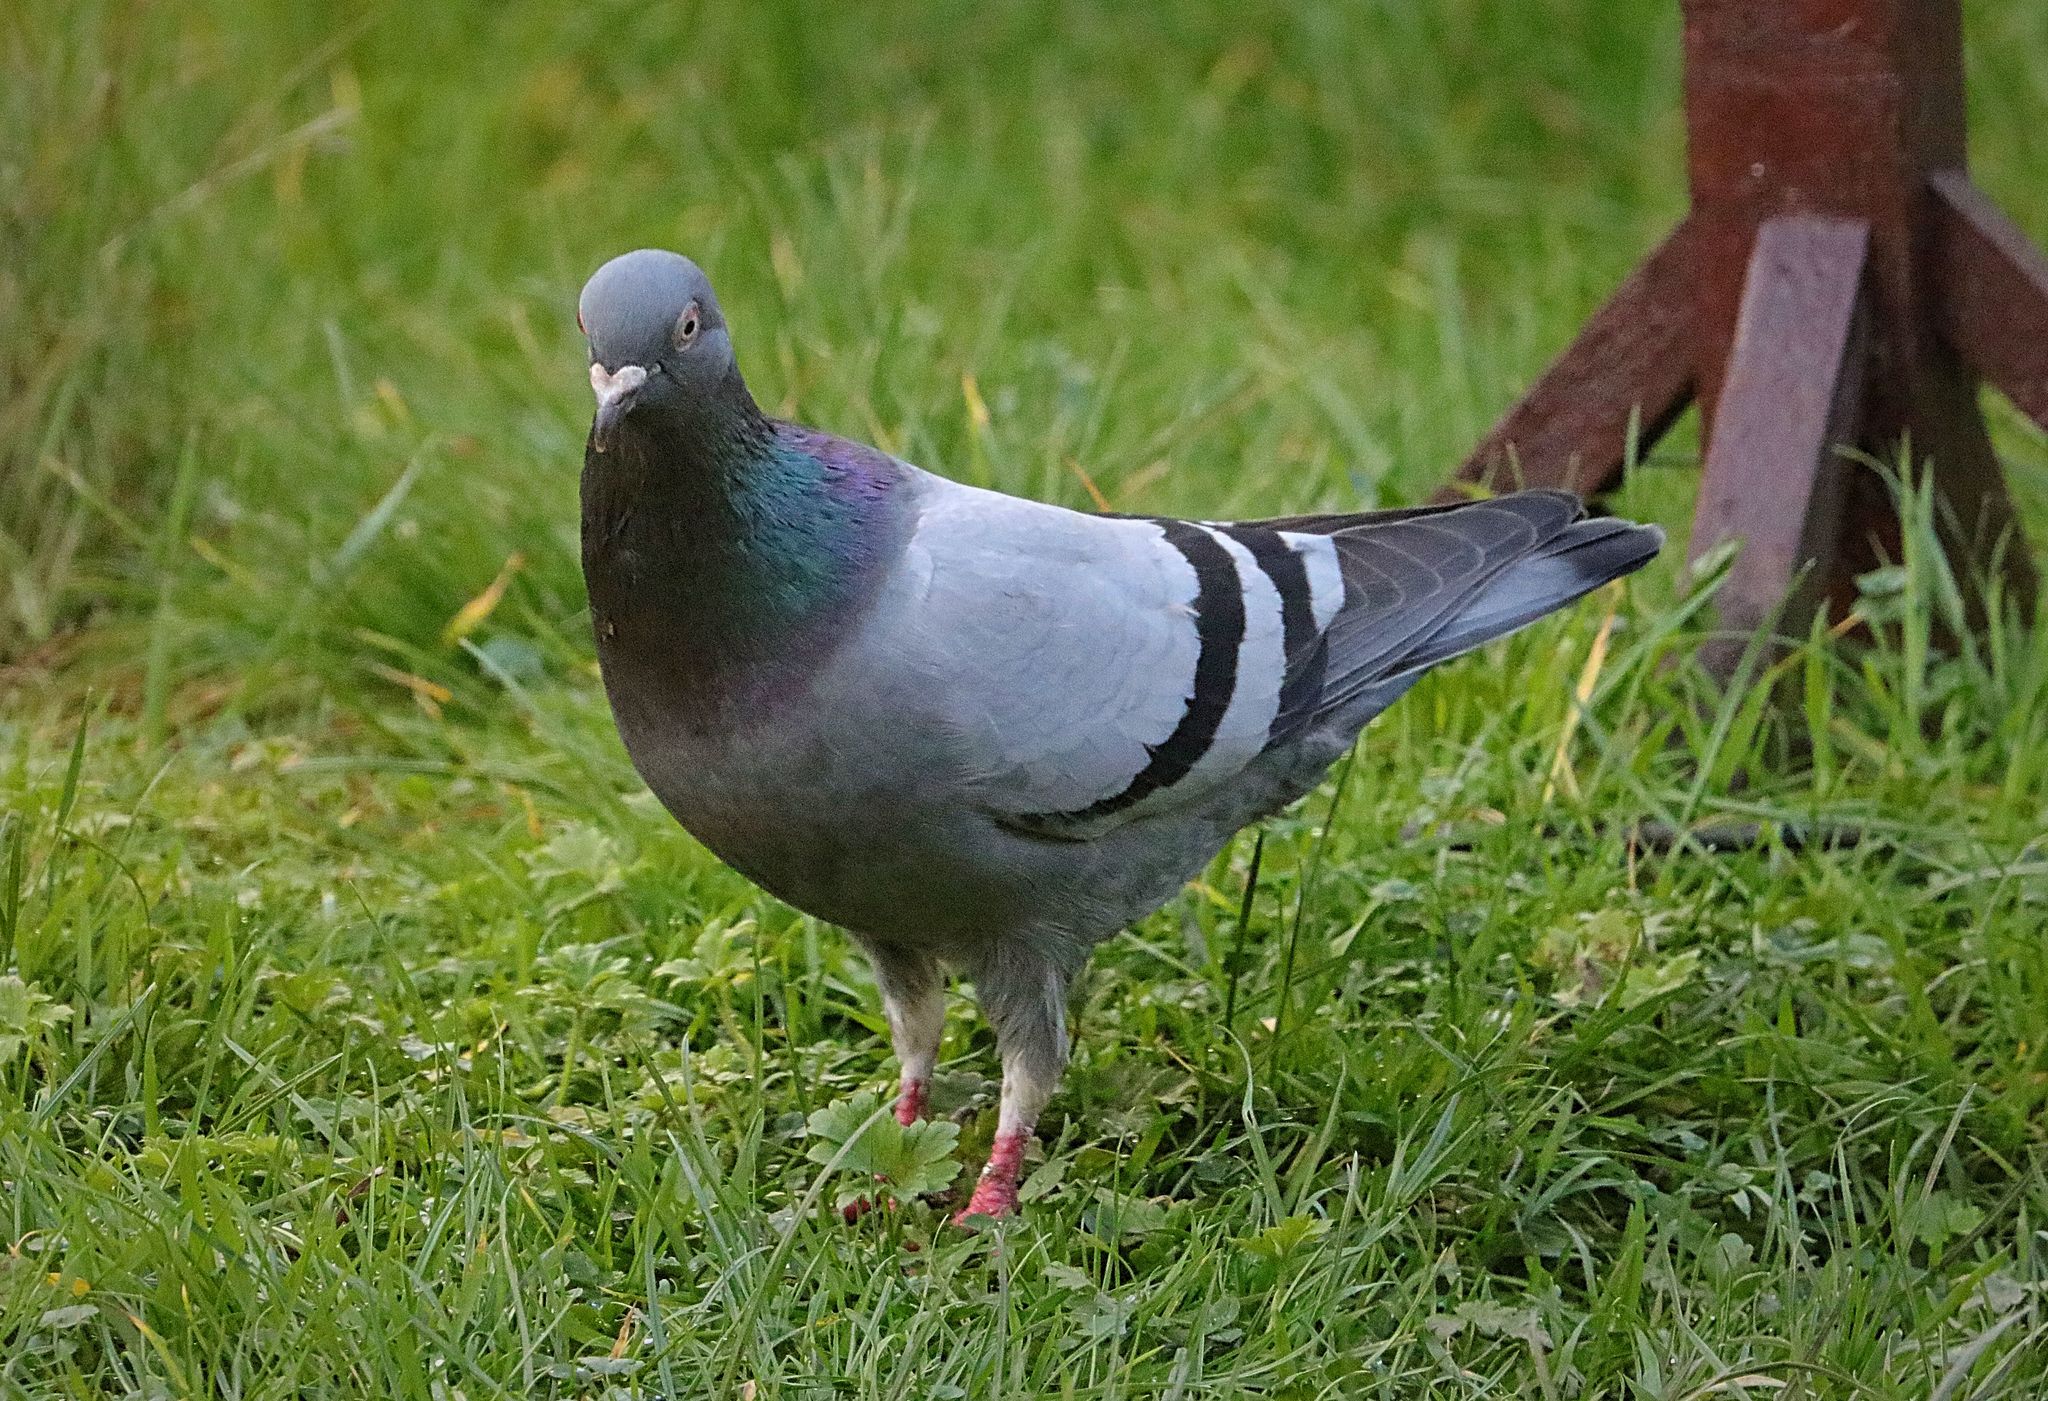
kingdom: Animalia
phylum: Chordata
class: Aves
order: Columbiformes
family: Columbidae
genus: Columba
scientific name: Columba livia
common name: Rock pigeon
